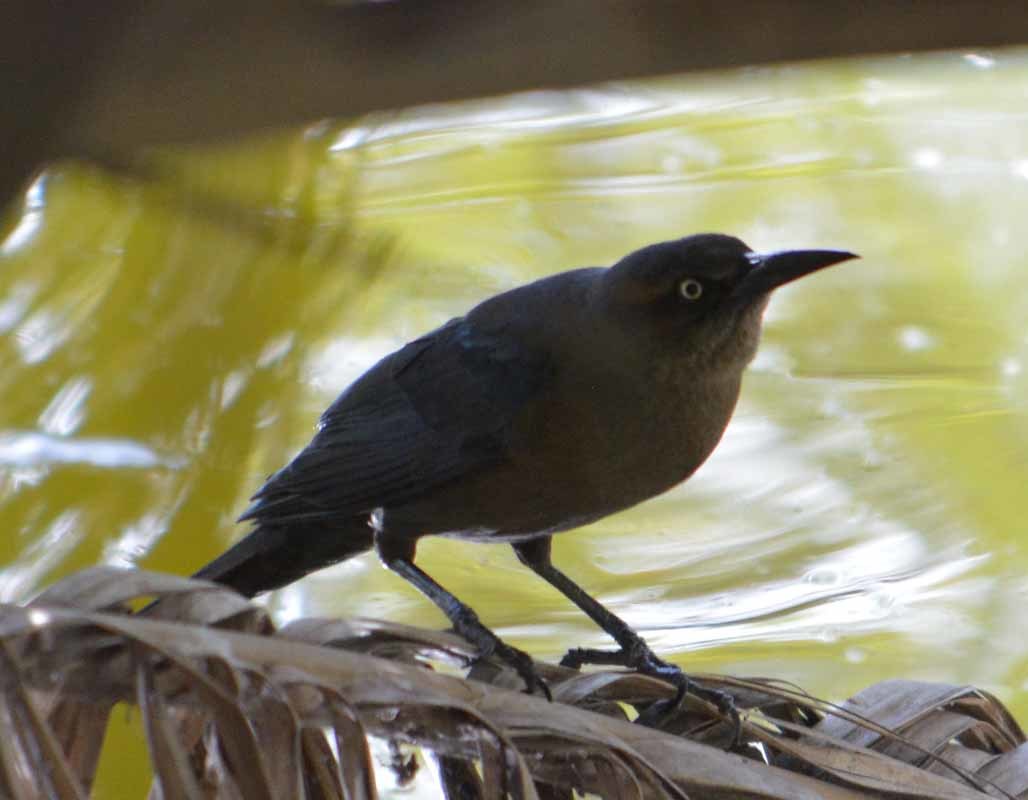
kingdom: Animalia
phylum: Chordata
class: Aves
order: Passeriformes
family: Icteridae
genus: Quiscalus
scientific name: Quiscalus mexicanus
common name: Great-tailed grackle
